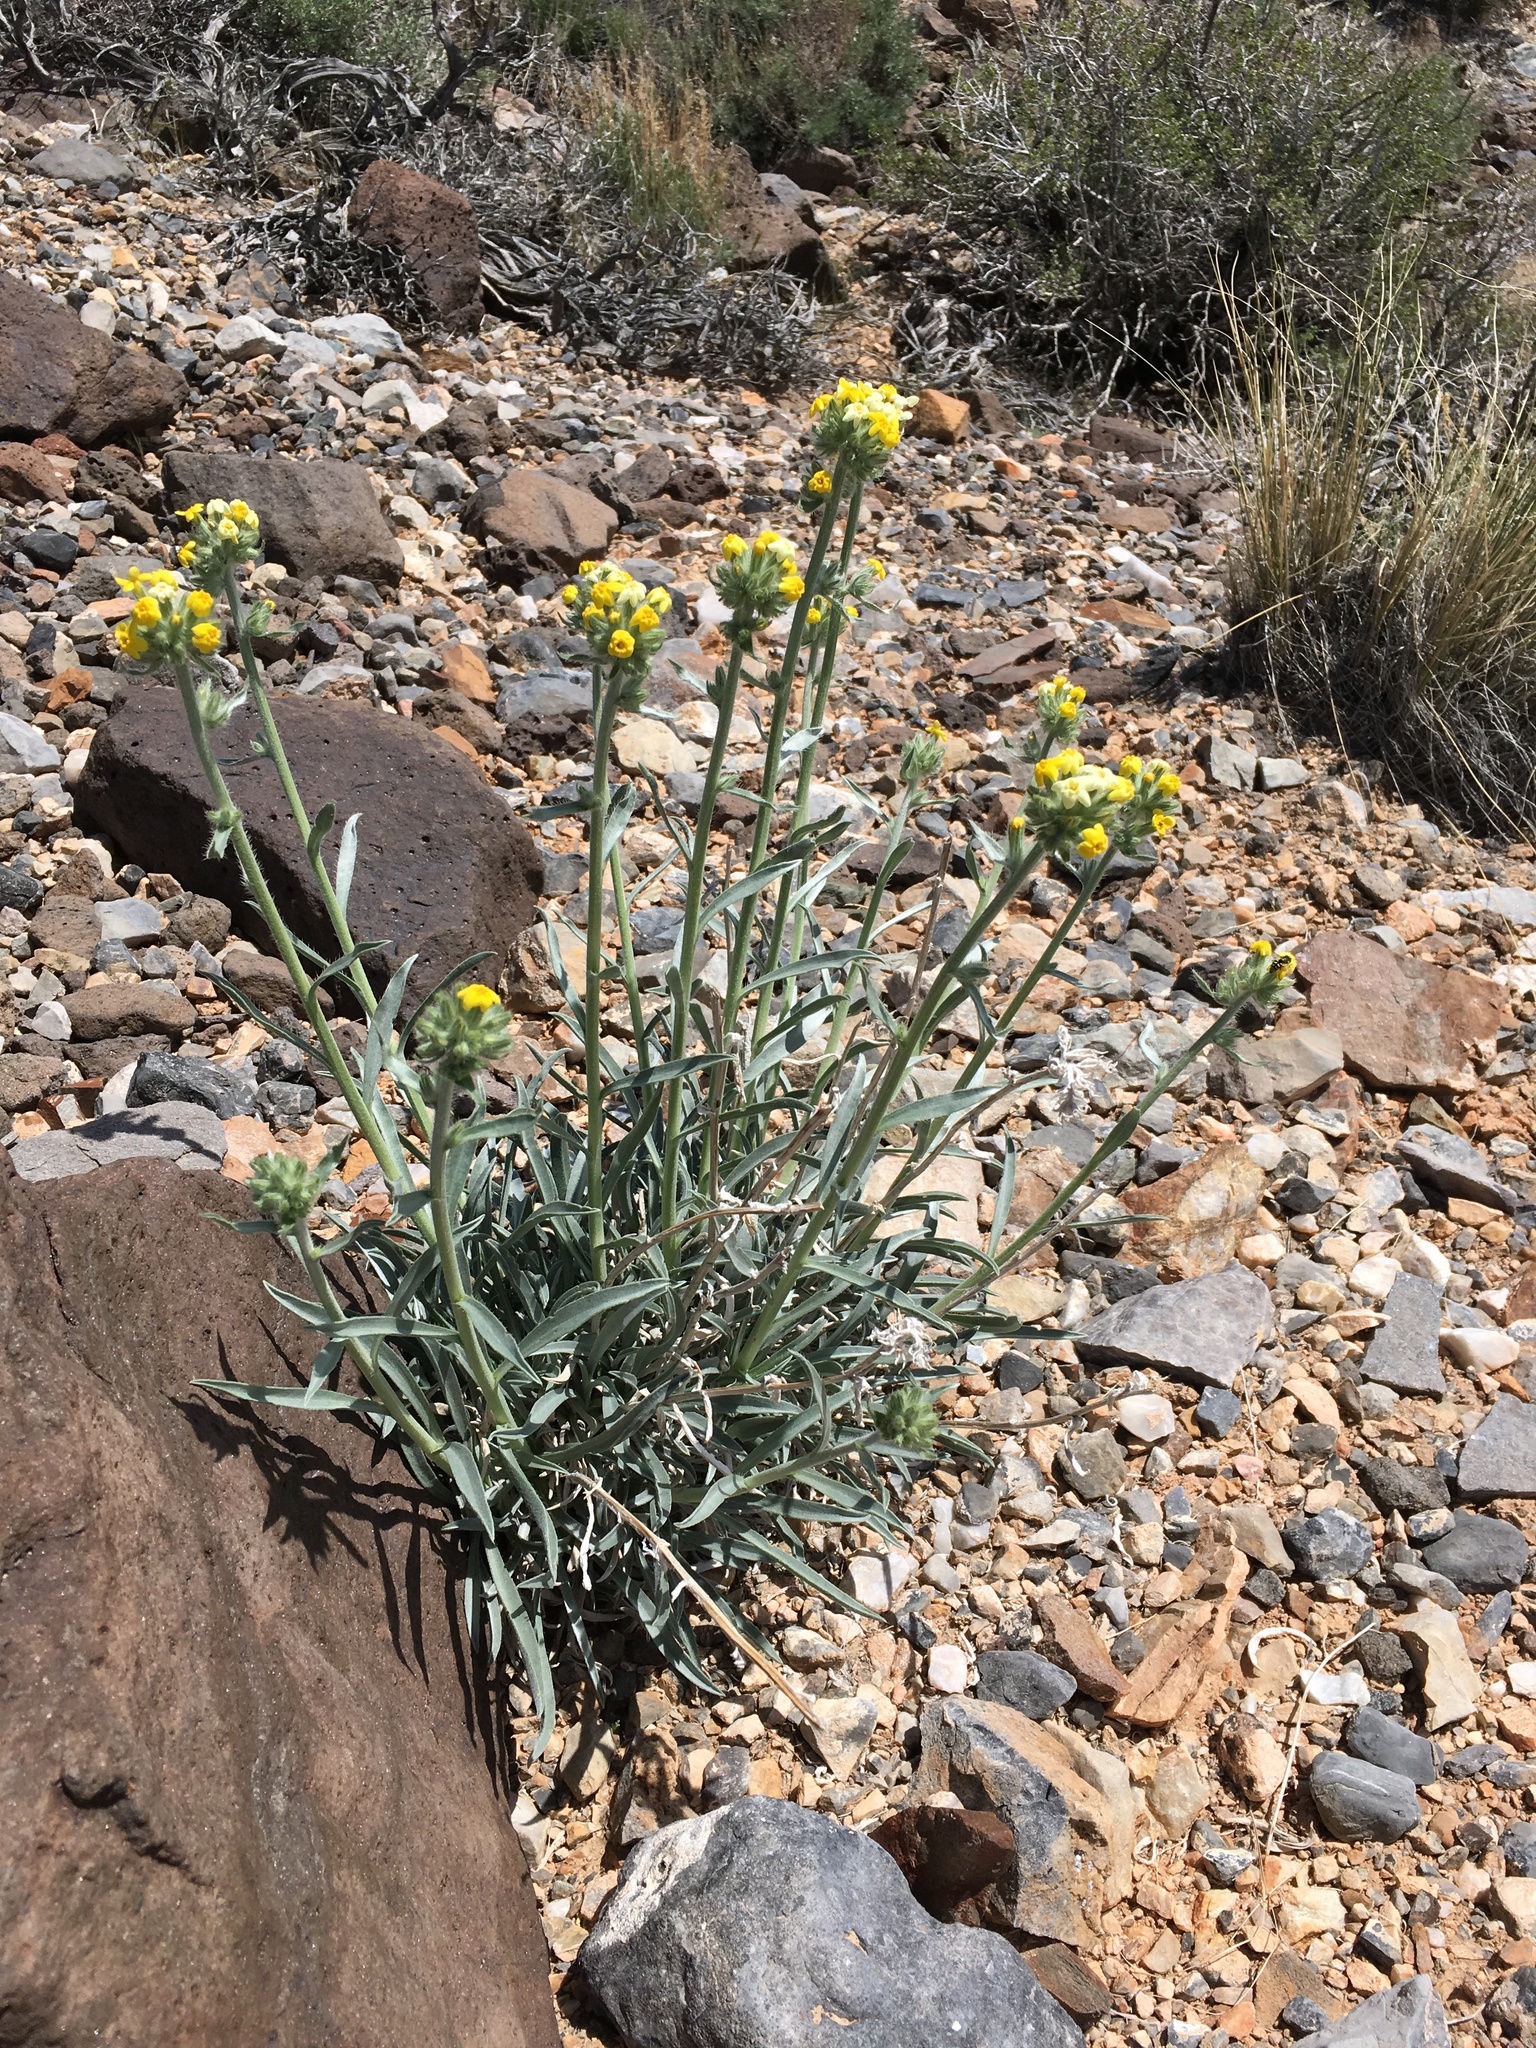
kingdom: Plantae
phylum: Tracheophyta
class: Magnoliopsida
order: Boraginales
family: Boraginaceae
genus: Oreocarya
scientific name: Oreocarya confertiflora
